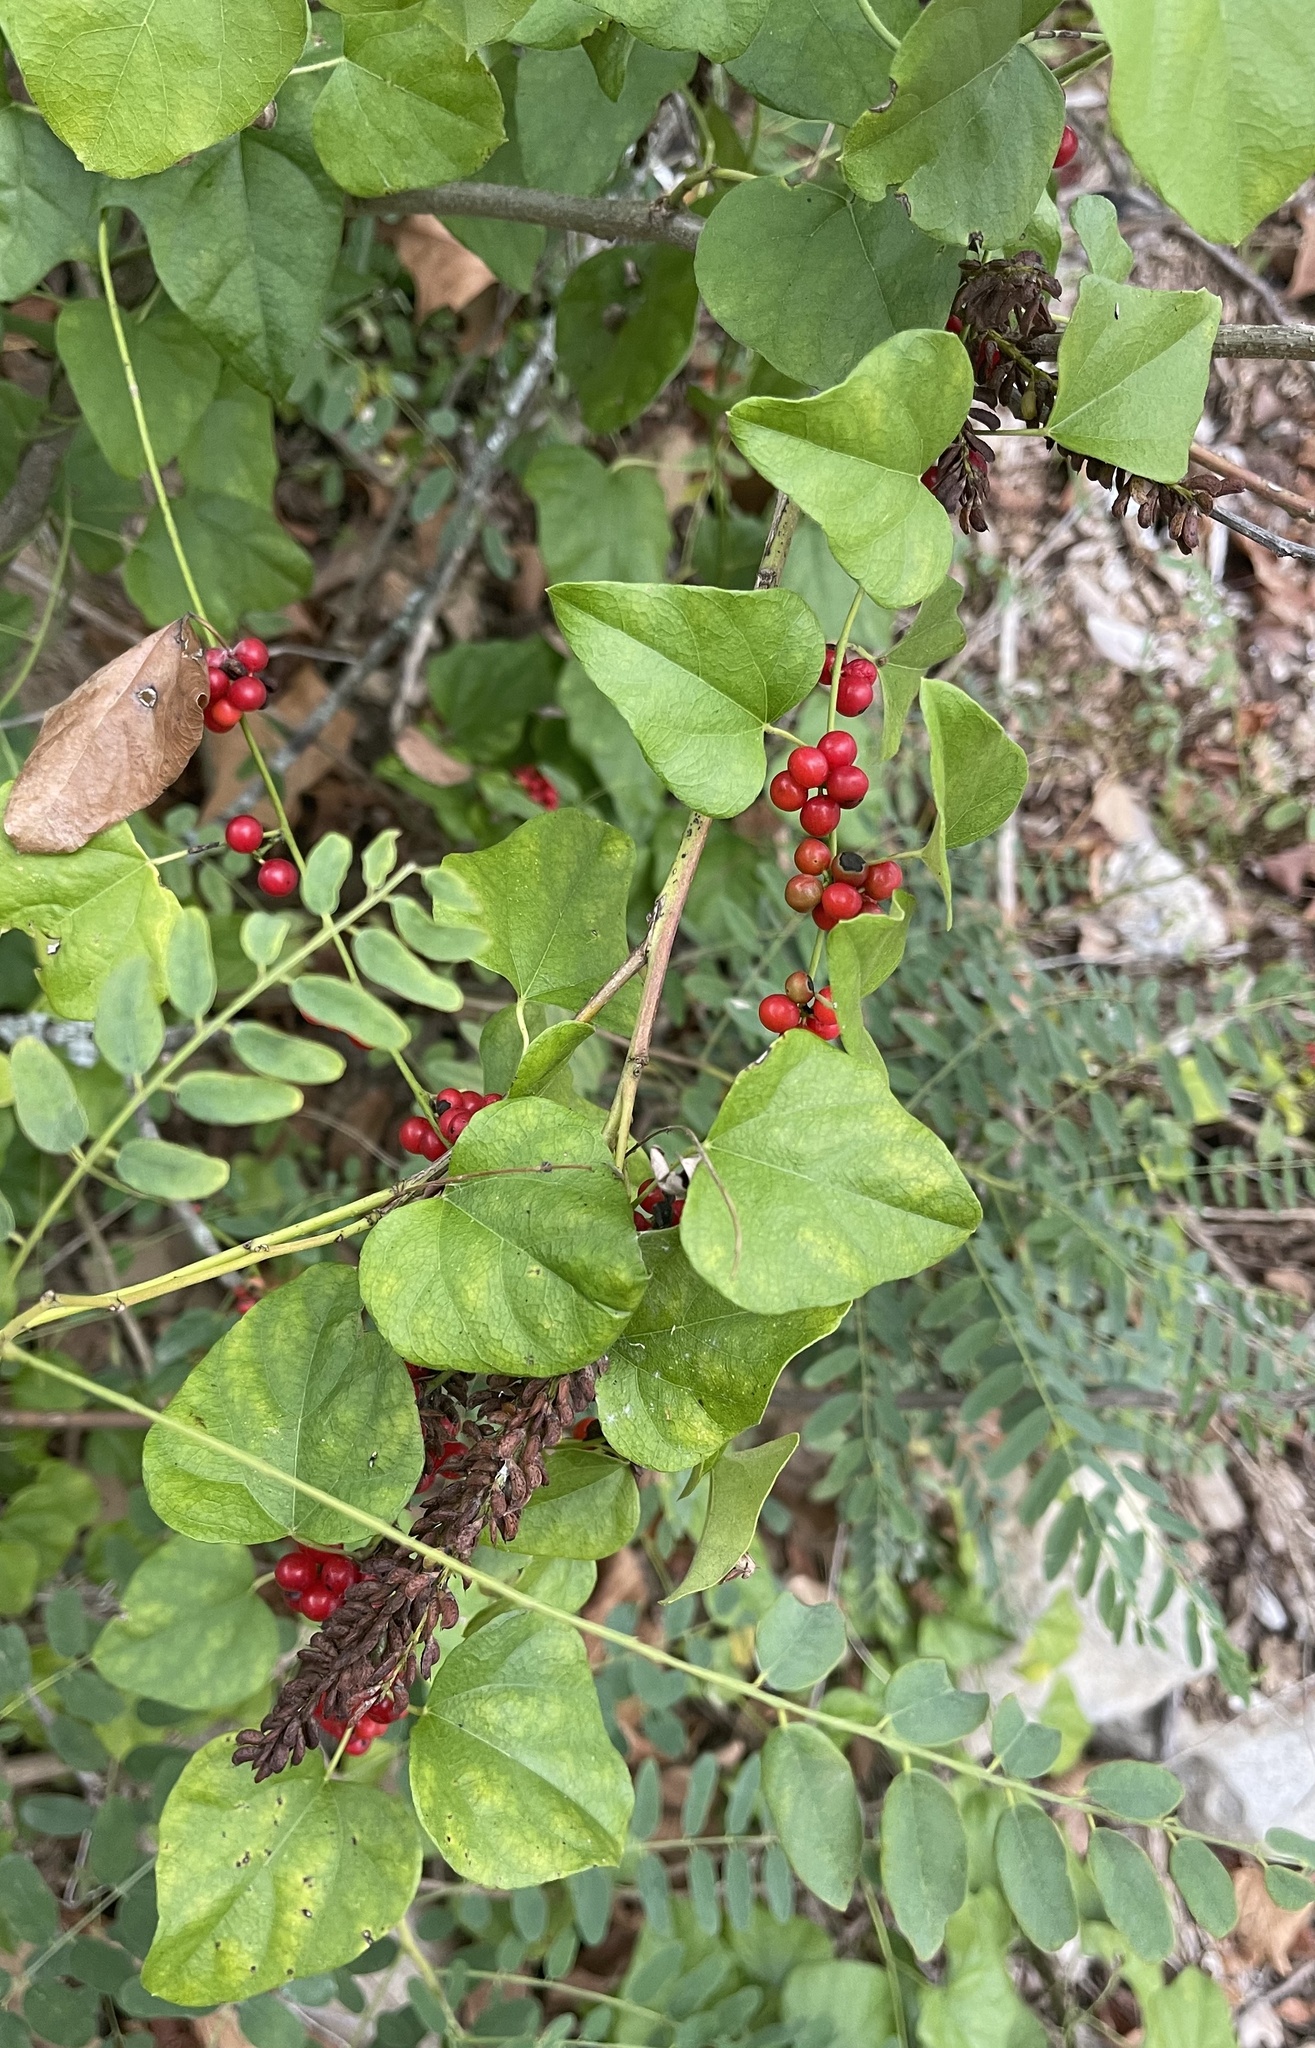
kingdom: Plantae
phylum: Tracheophyta
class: Magnoliopsida
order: Ranunculales
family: Menispermaceae
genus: Cocculus
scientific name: Cocculus carolinus
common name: Carolina moonseed
